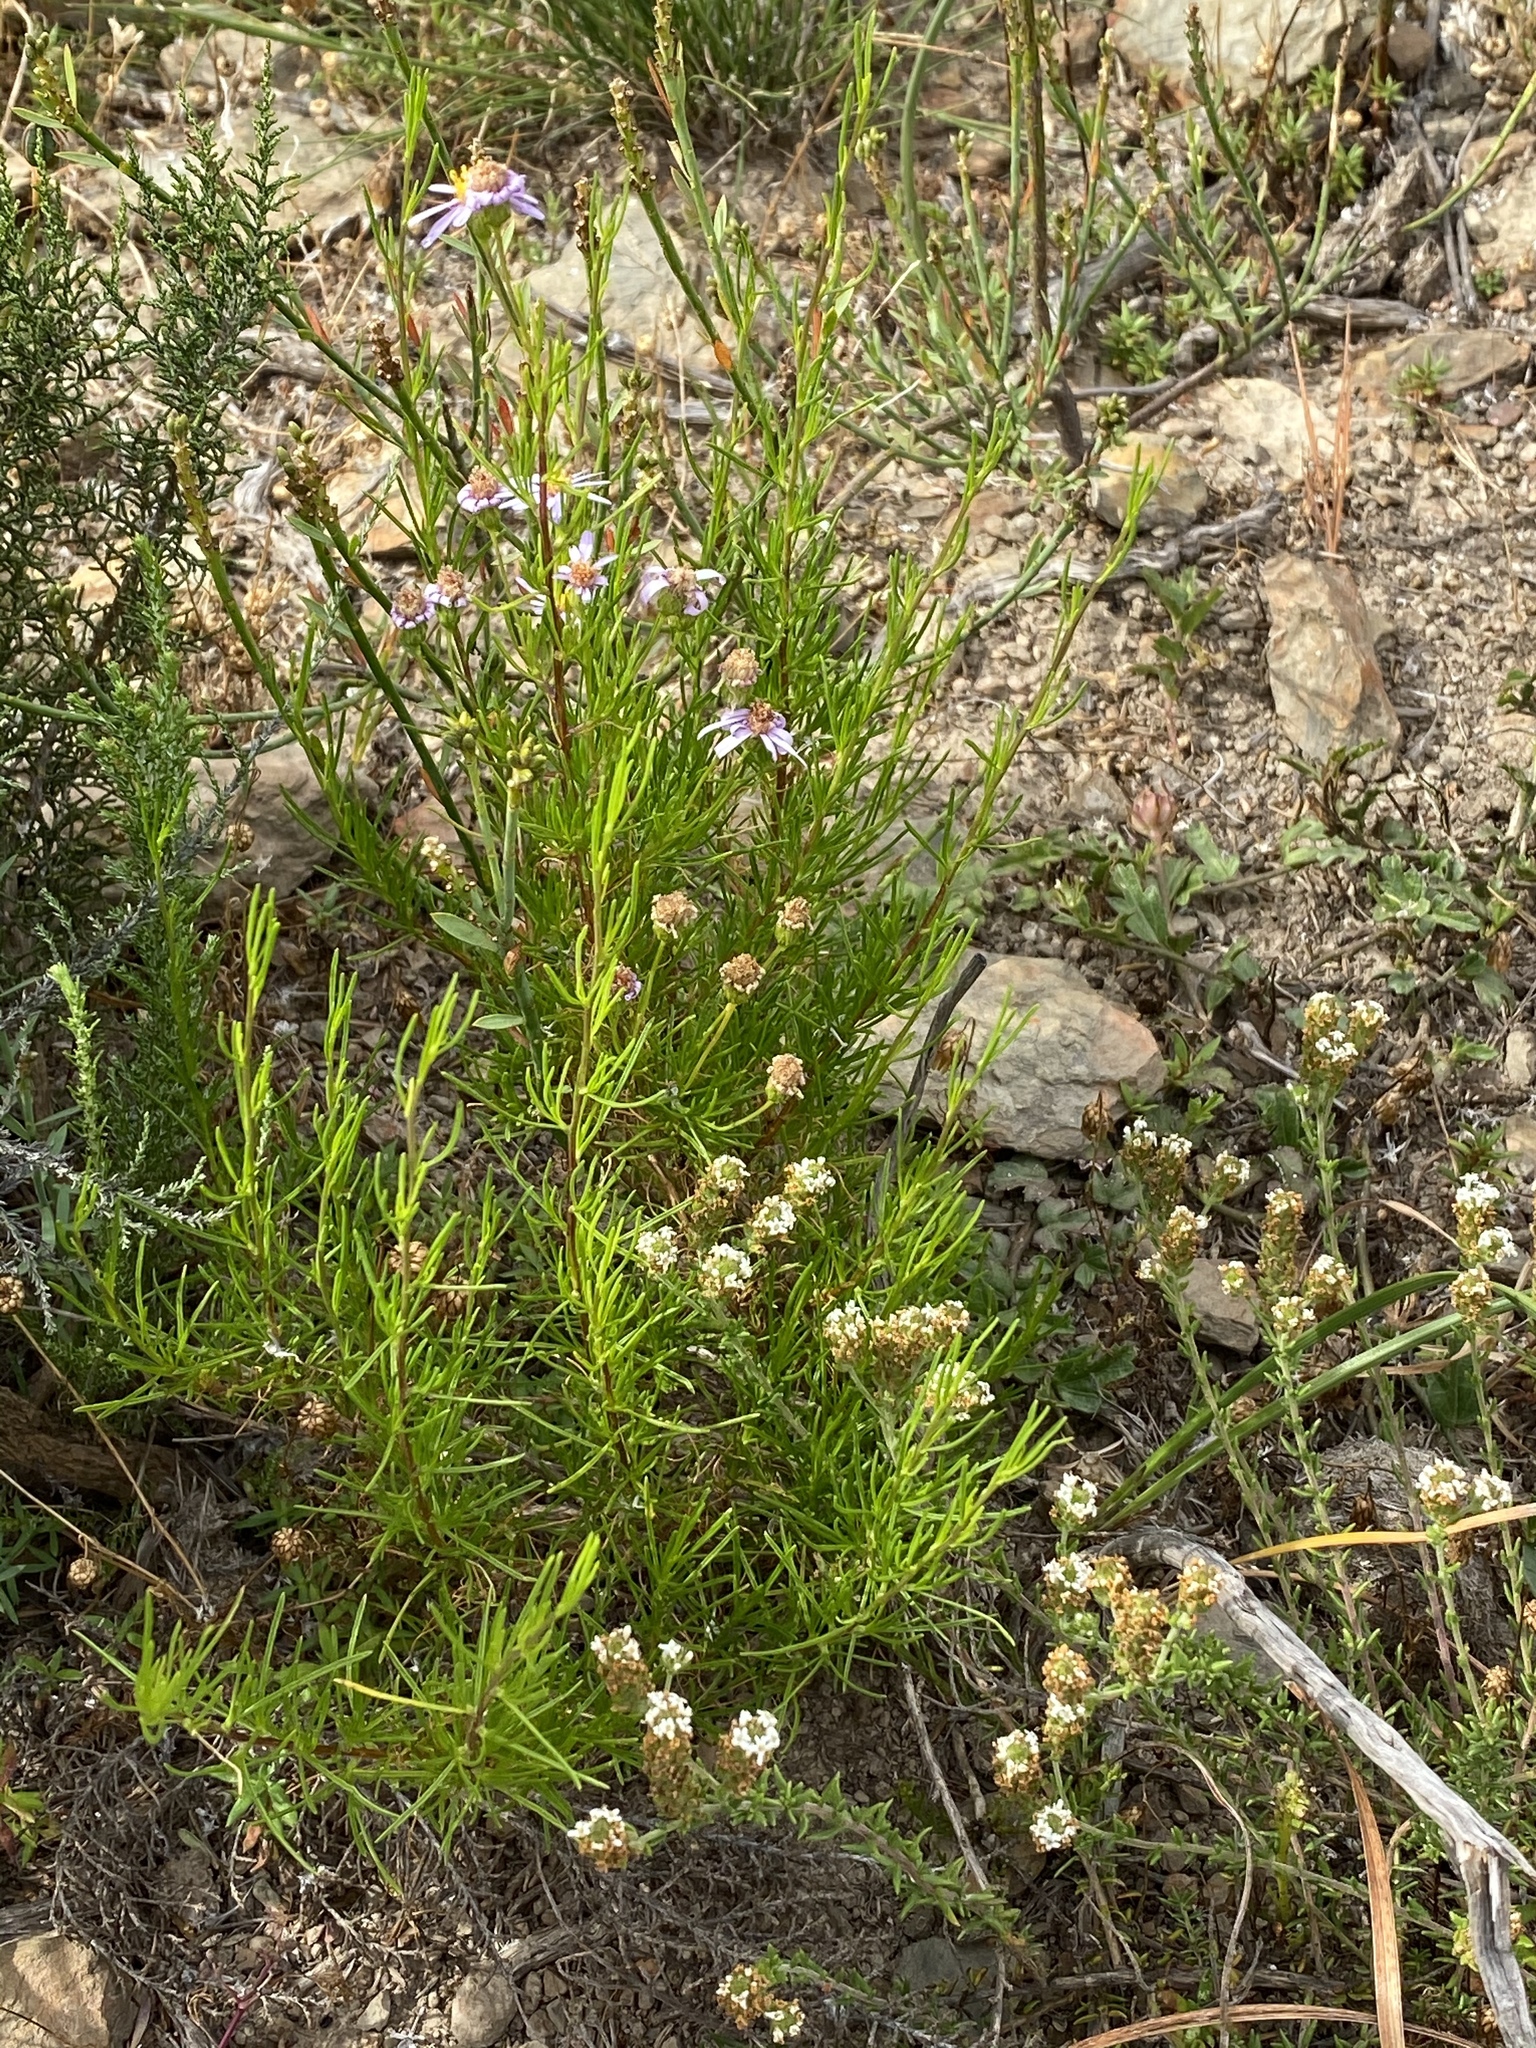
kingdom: Plantae
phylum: Tracheophyta
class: Magnoliopsida
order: Asterales
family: Asteraceae
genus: Felicia
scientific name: Felicia filifolia
